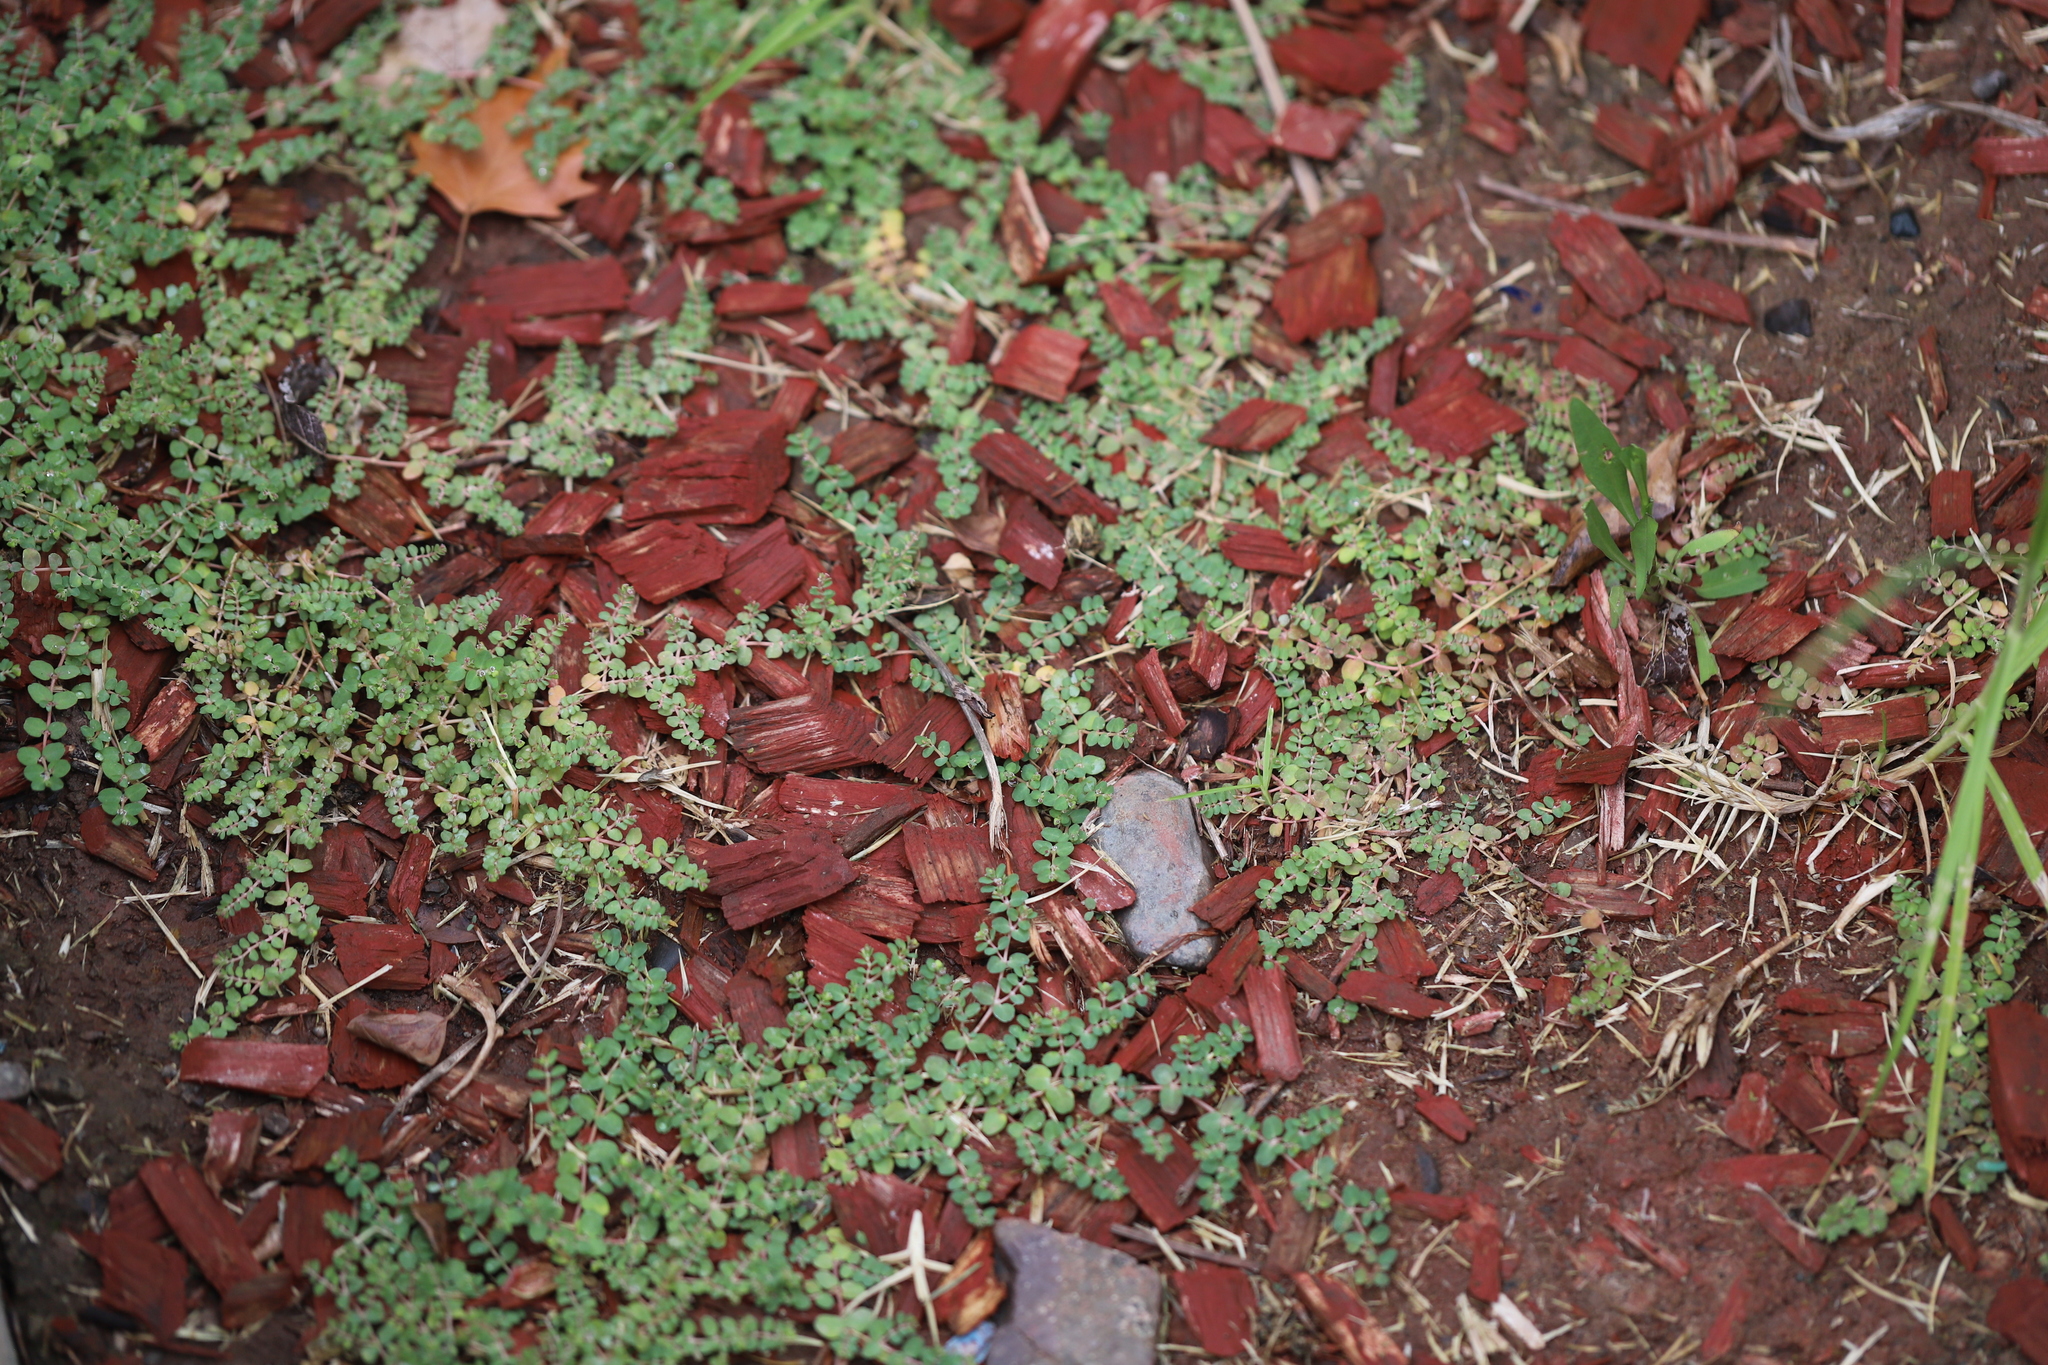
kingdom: Plantae
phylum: Tracheophyta
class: Magnoliopsida
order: Malpighiales
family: Euphorbiaceae
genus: Euphorbia
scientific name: Euphorbia serpens
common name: Matted sandmat
